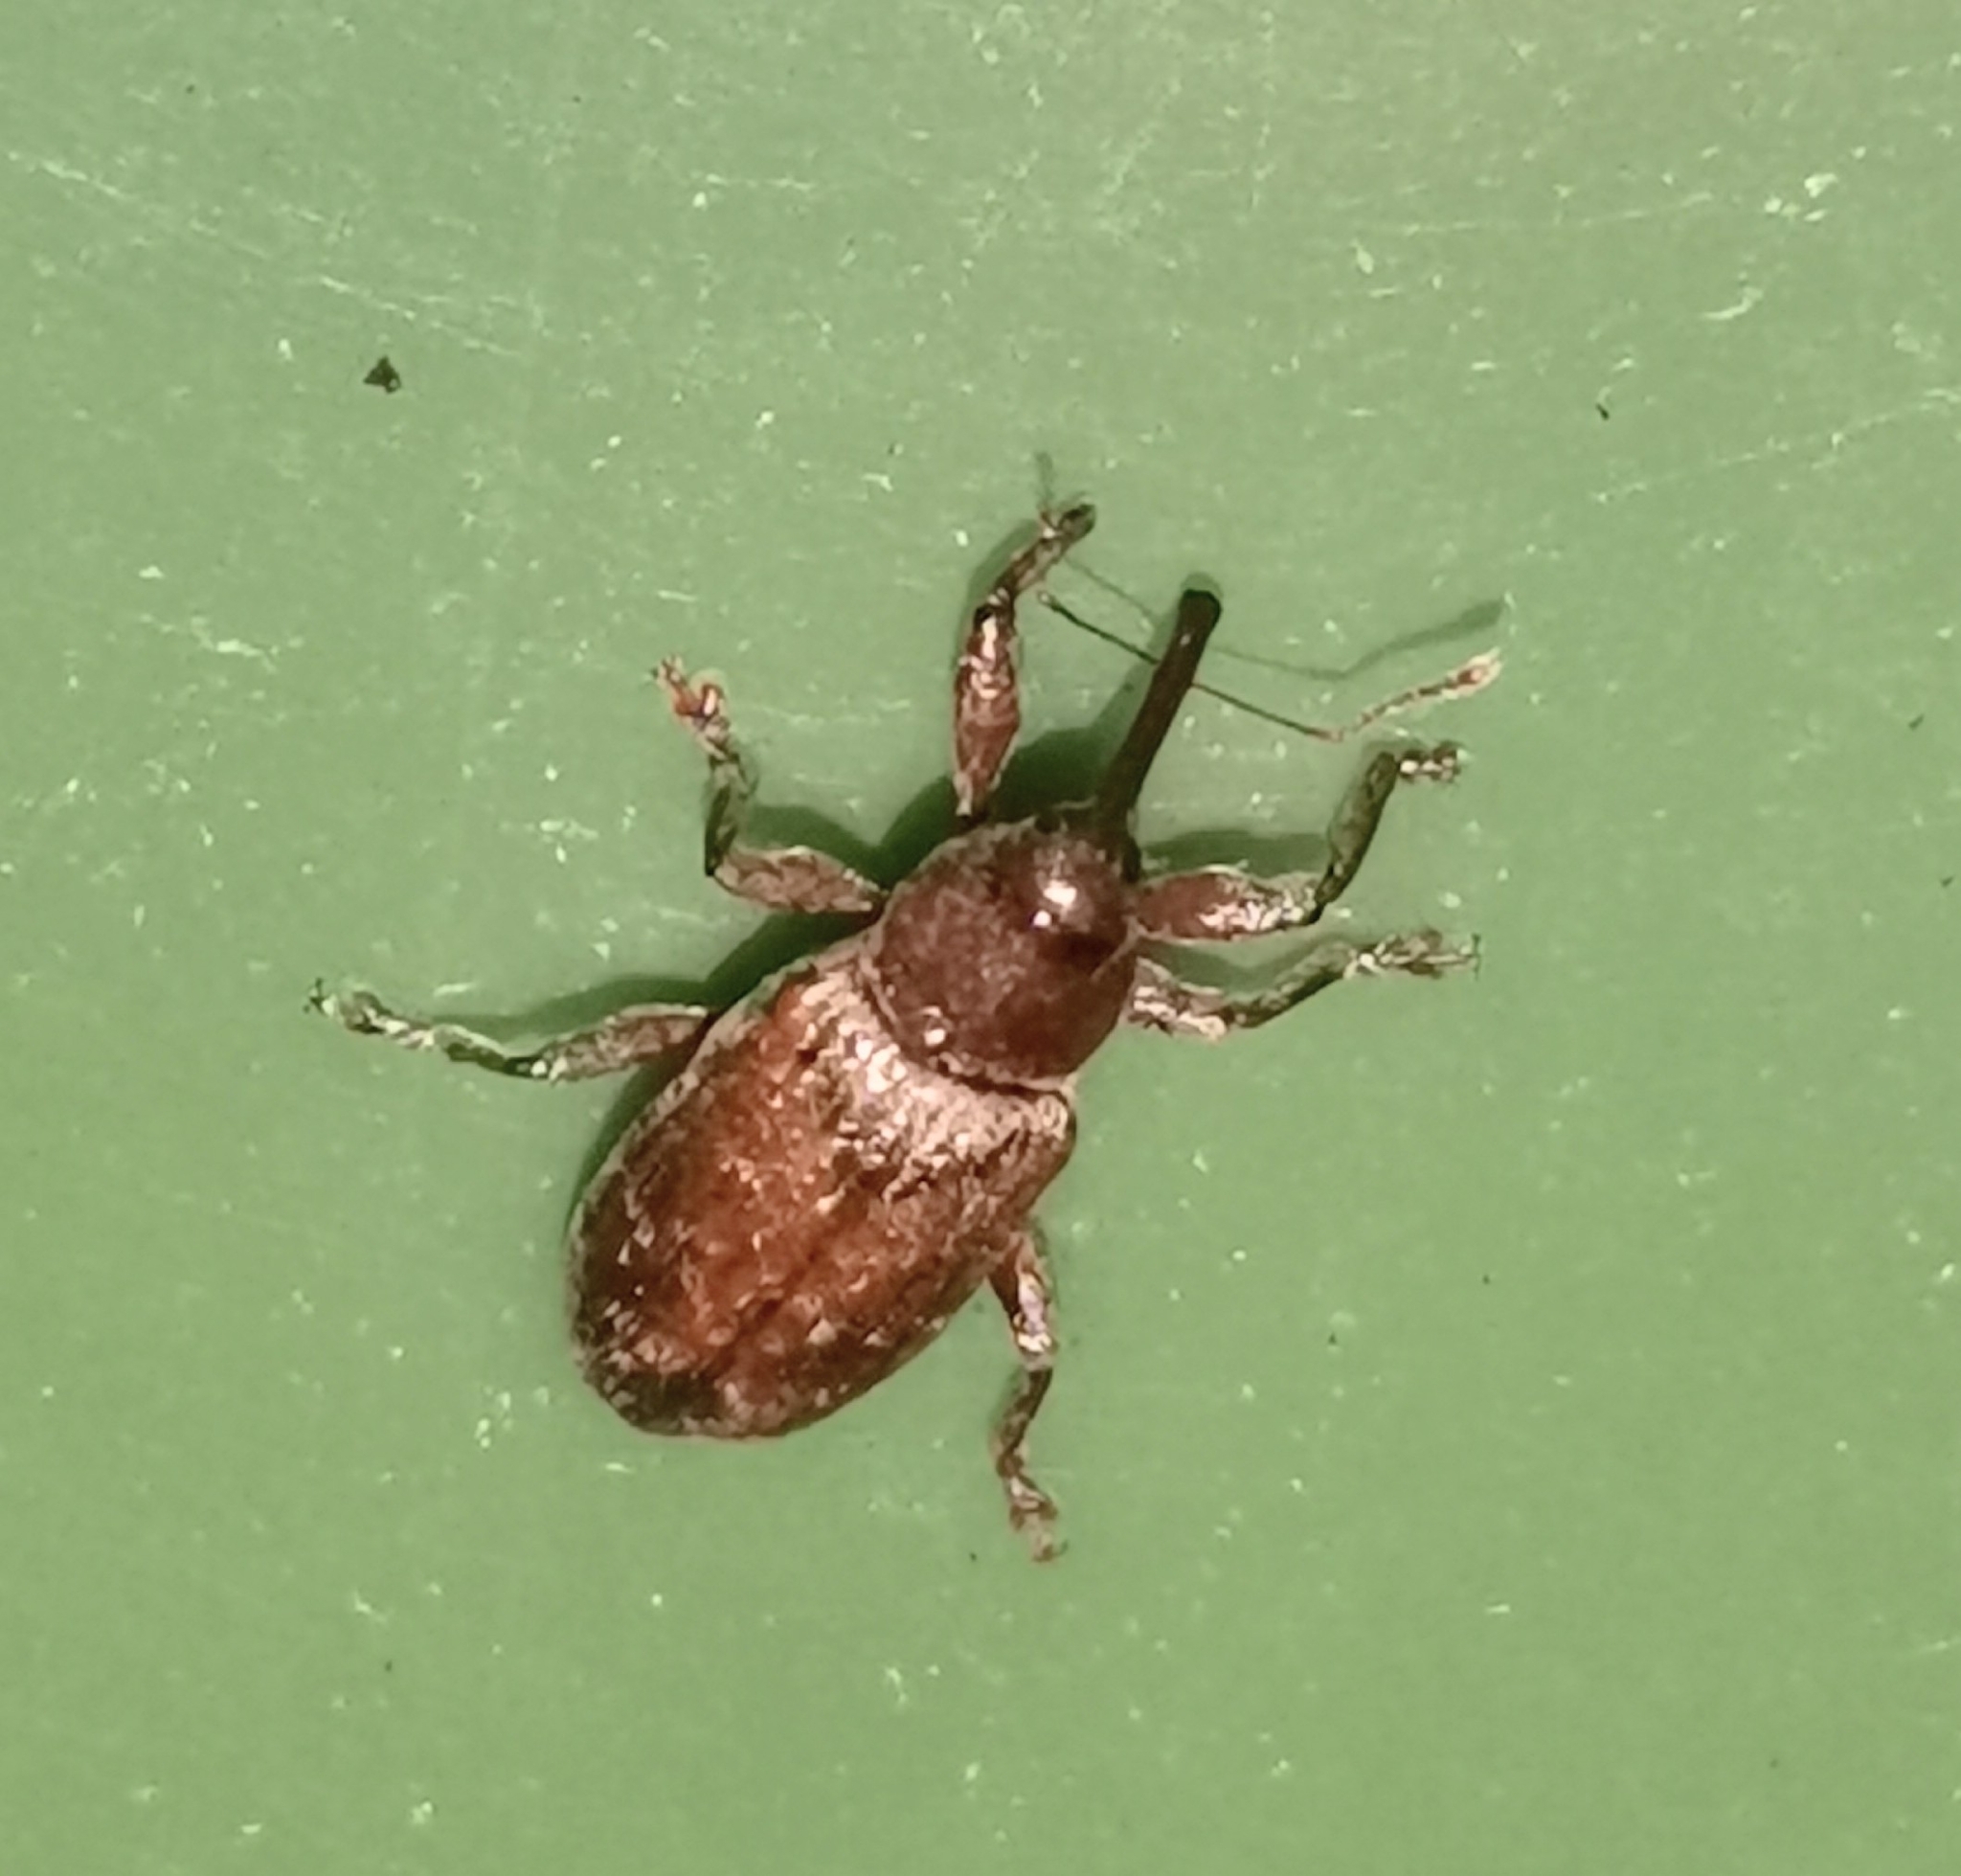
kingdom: Animalia
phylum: Arthropoda
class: Insecta
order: Coleoptera
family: Curculionidae
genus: Dorytomus
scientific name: Dorytomus tortrix
